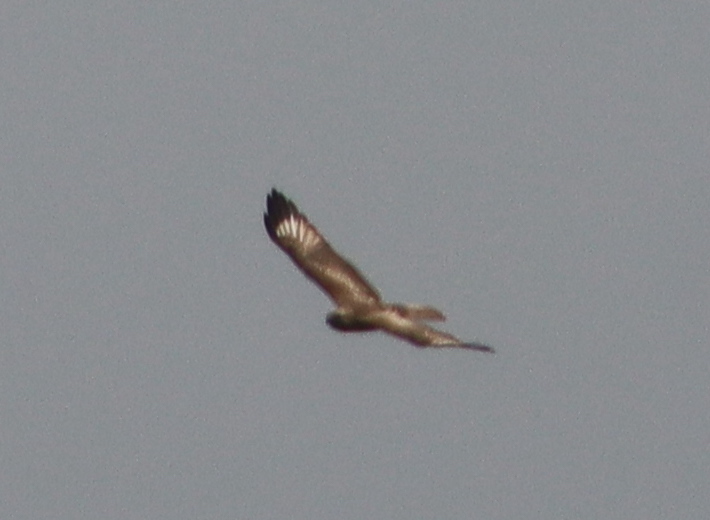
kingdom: Animalia
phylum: Chordata
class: Aves
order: Accipitriformes
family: Accipitridae
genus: Buteo
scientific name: Buteo japonicus
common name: Eastern buzzard
